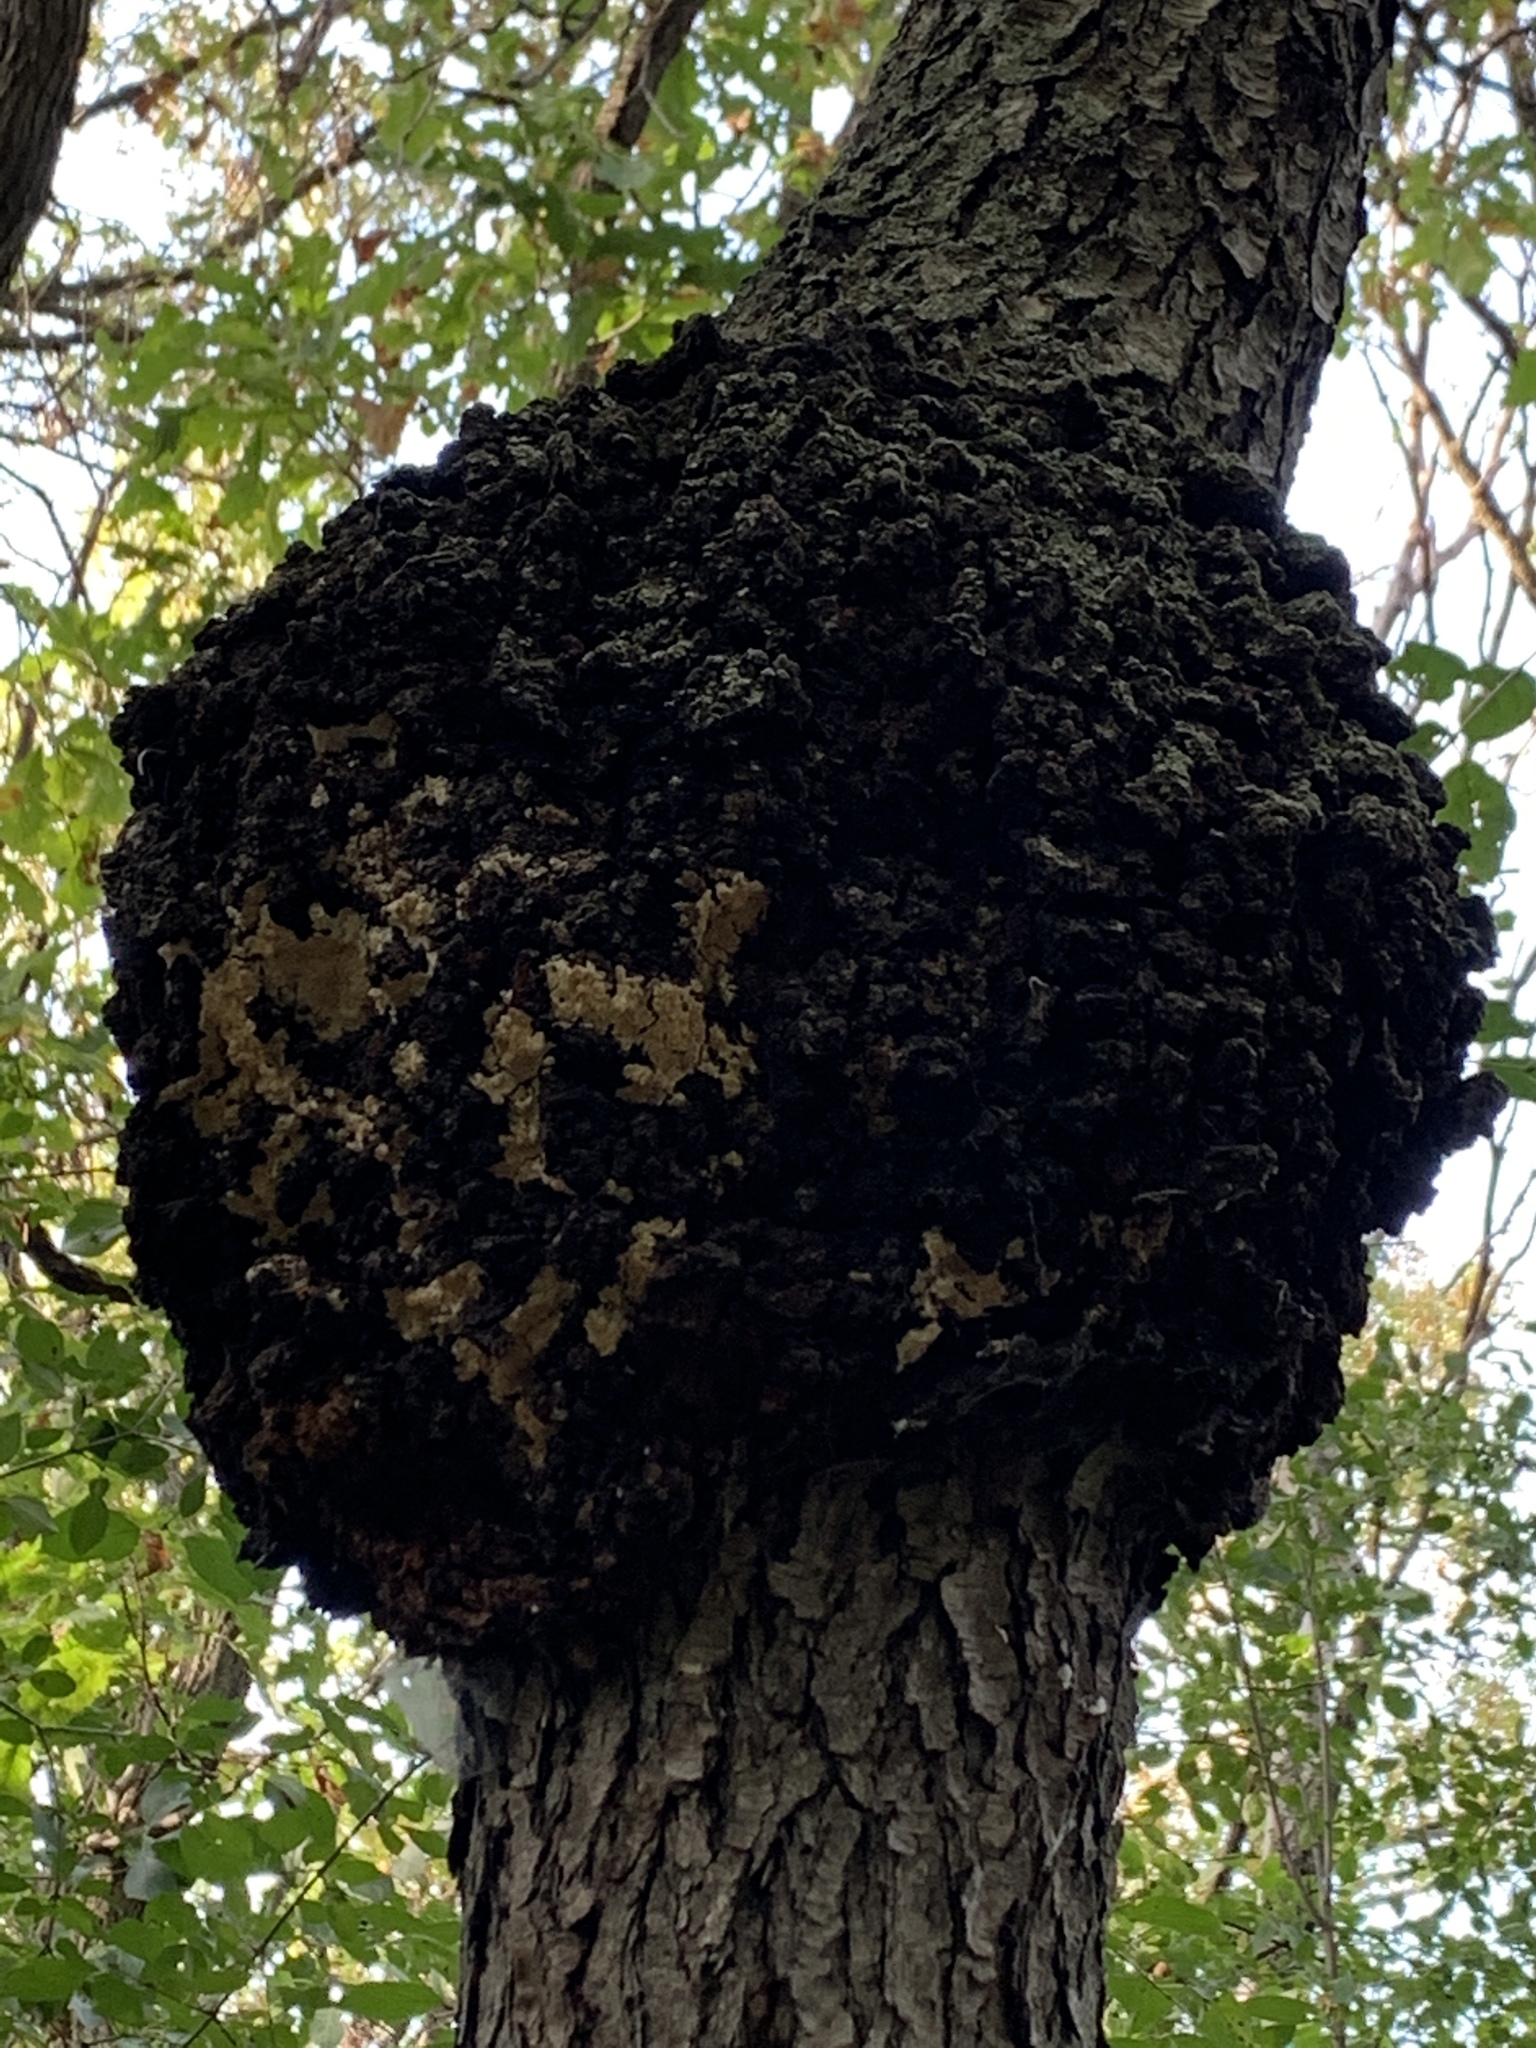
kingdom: Fungi
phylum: Ascomycota
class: Dothideomycetes
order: Venturiales
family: Venturiaceae
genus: Apiosporina
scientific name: Apiosporina morbosa
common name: Black knot
